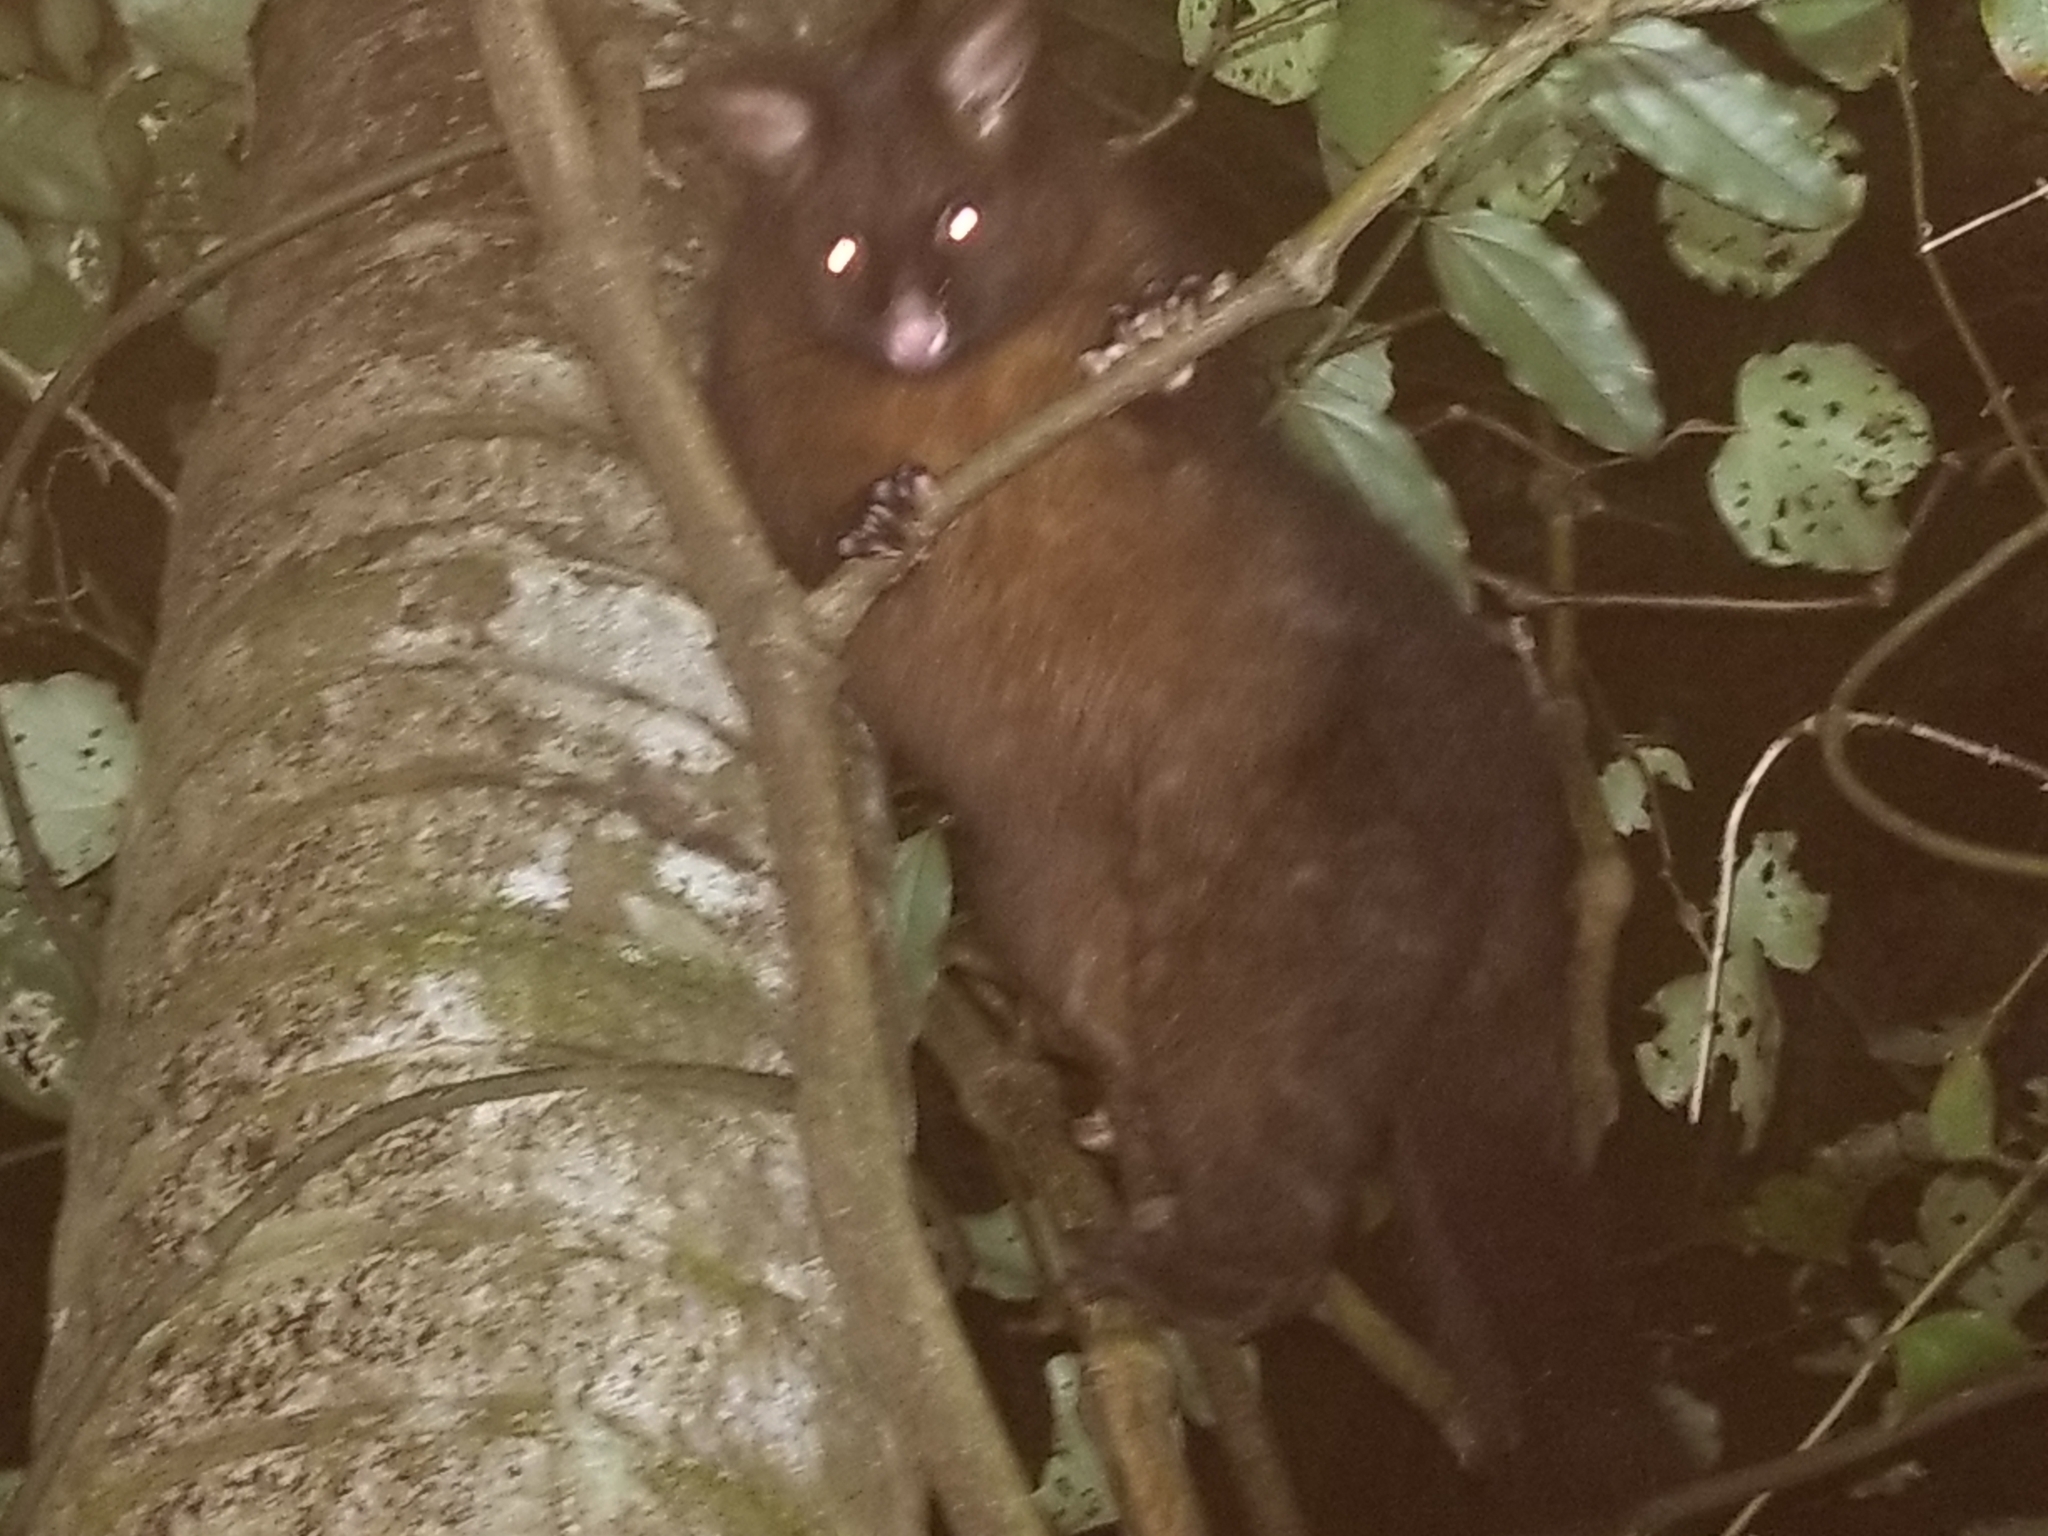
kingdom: Animalia
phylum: Chordata
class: Mammalia
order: Diprotodontia
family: Phalangeridae
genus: Trichosurus
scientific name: Trichosurus vulpecula
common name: Common brushtail
